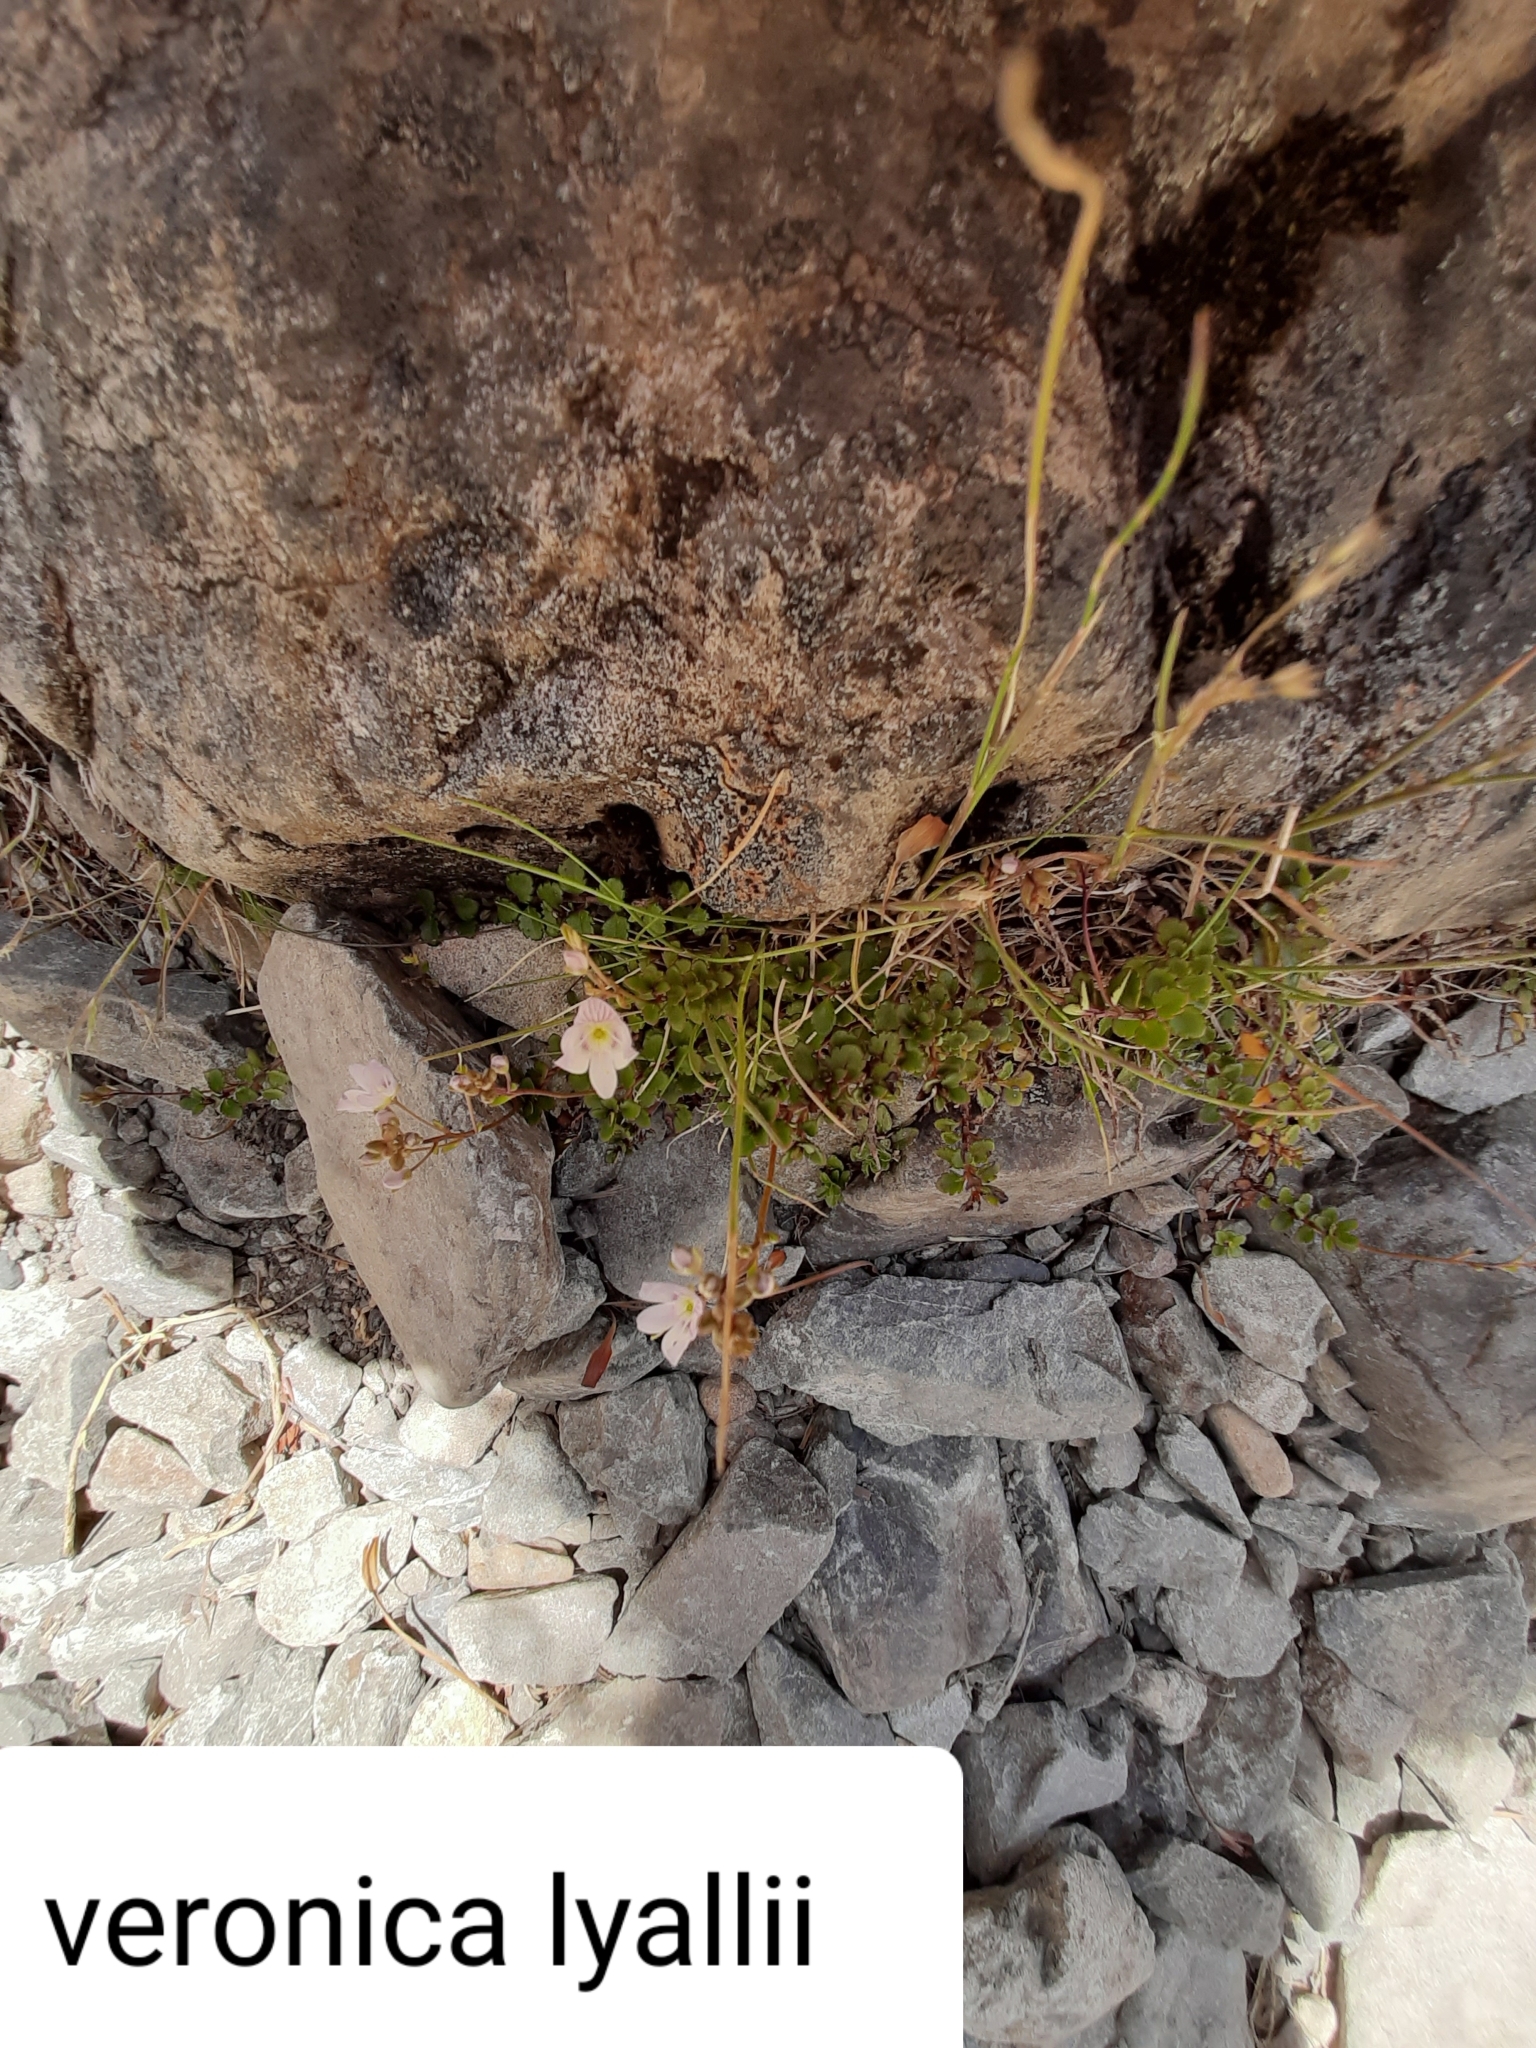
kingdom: Plantae
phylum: Tracheophyta
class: Magnoliopsida
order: Lamiales
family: Plantaginaceae
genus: Veronica
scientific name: Veronica lyallii
